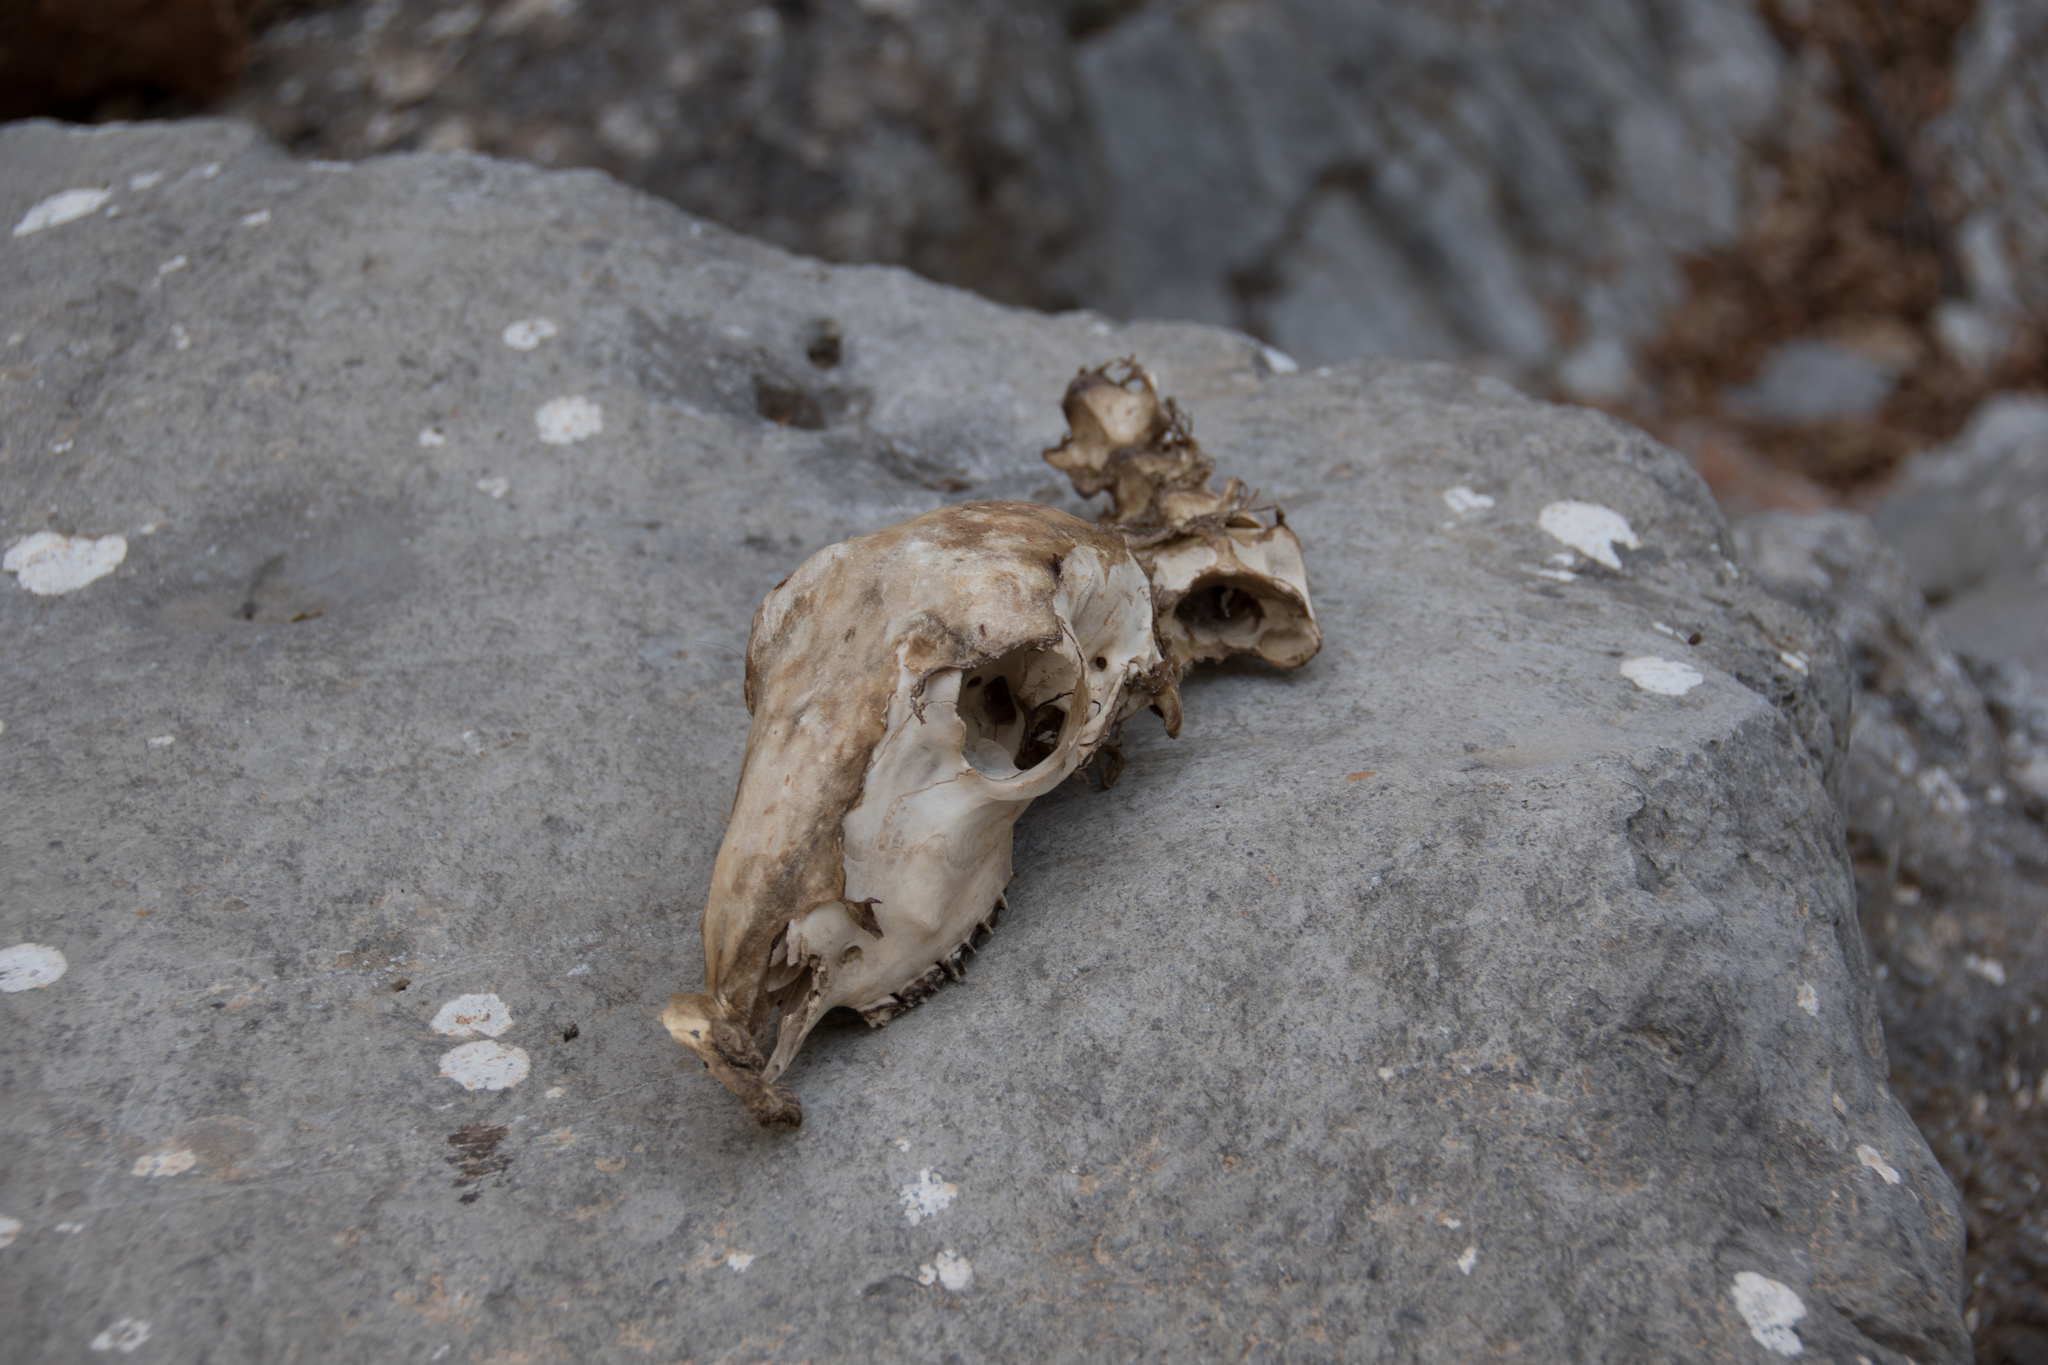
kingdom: Animalia
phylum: Chordata
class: Mammalia
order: Artiodactyla
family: Bovidae
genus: Ovis
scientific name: Ovis aries
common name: Domestic sheep
